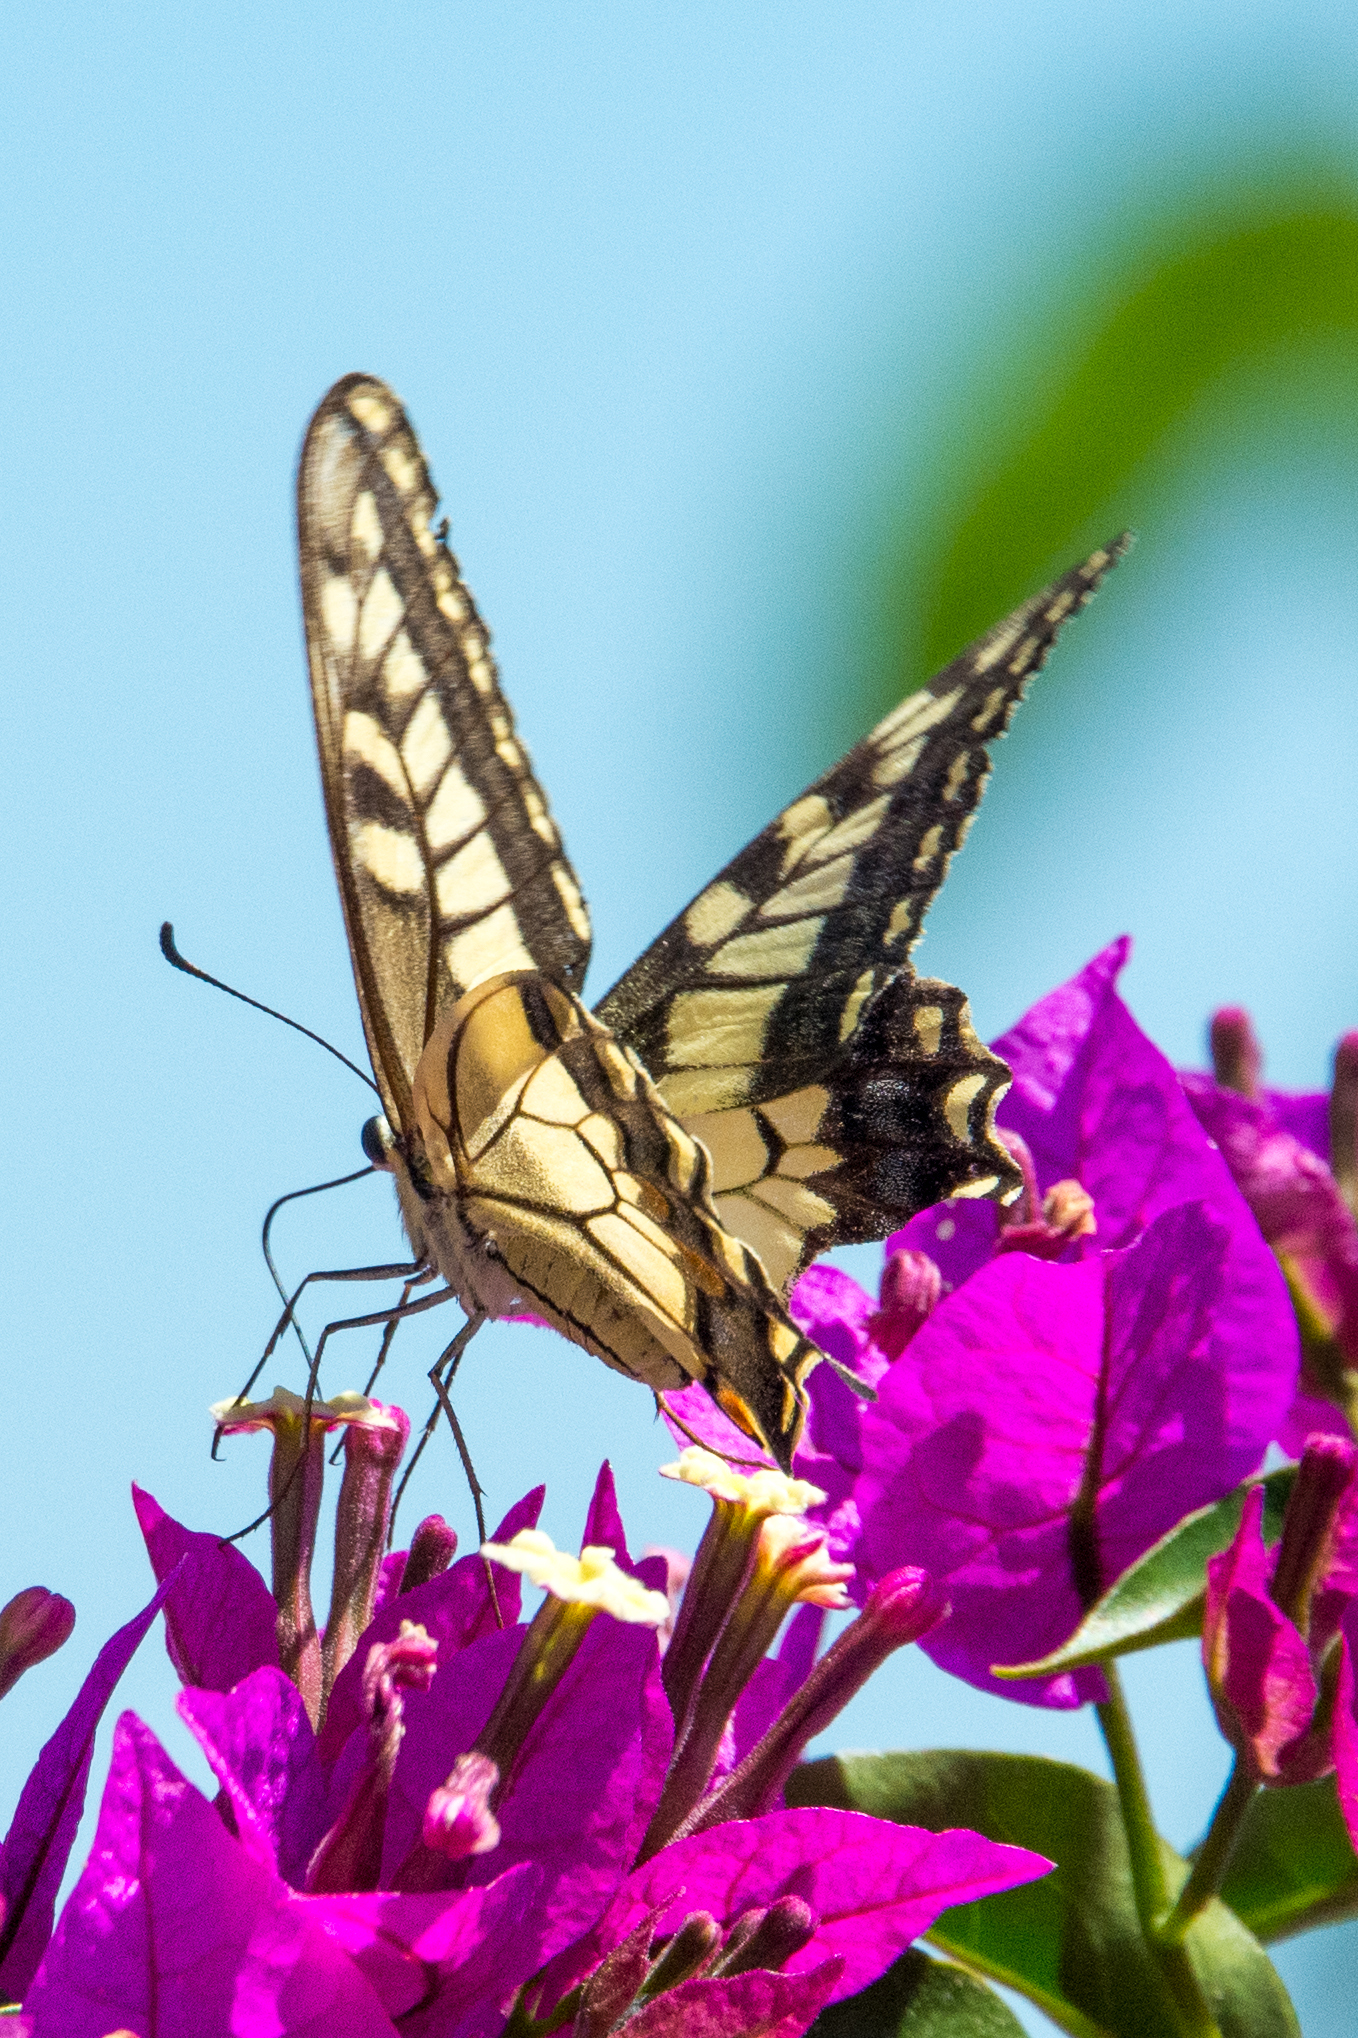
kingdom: Animalia
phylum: Arthropoda
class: Insecta
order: Lepidoptera
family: Papilionidae
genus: Papilio
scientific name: Papilio machaon
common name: Swallowtail
